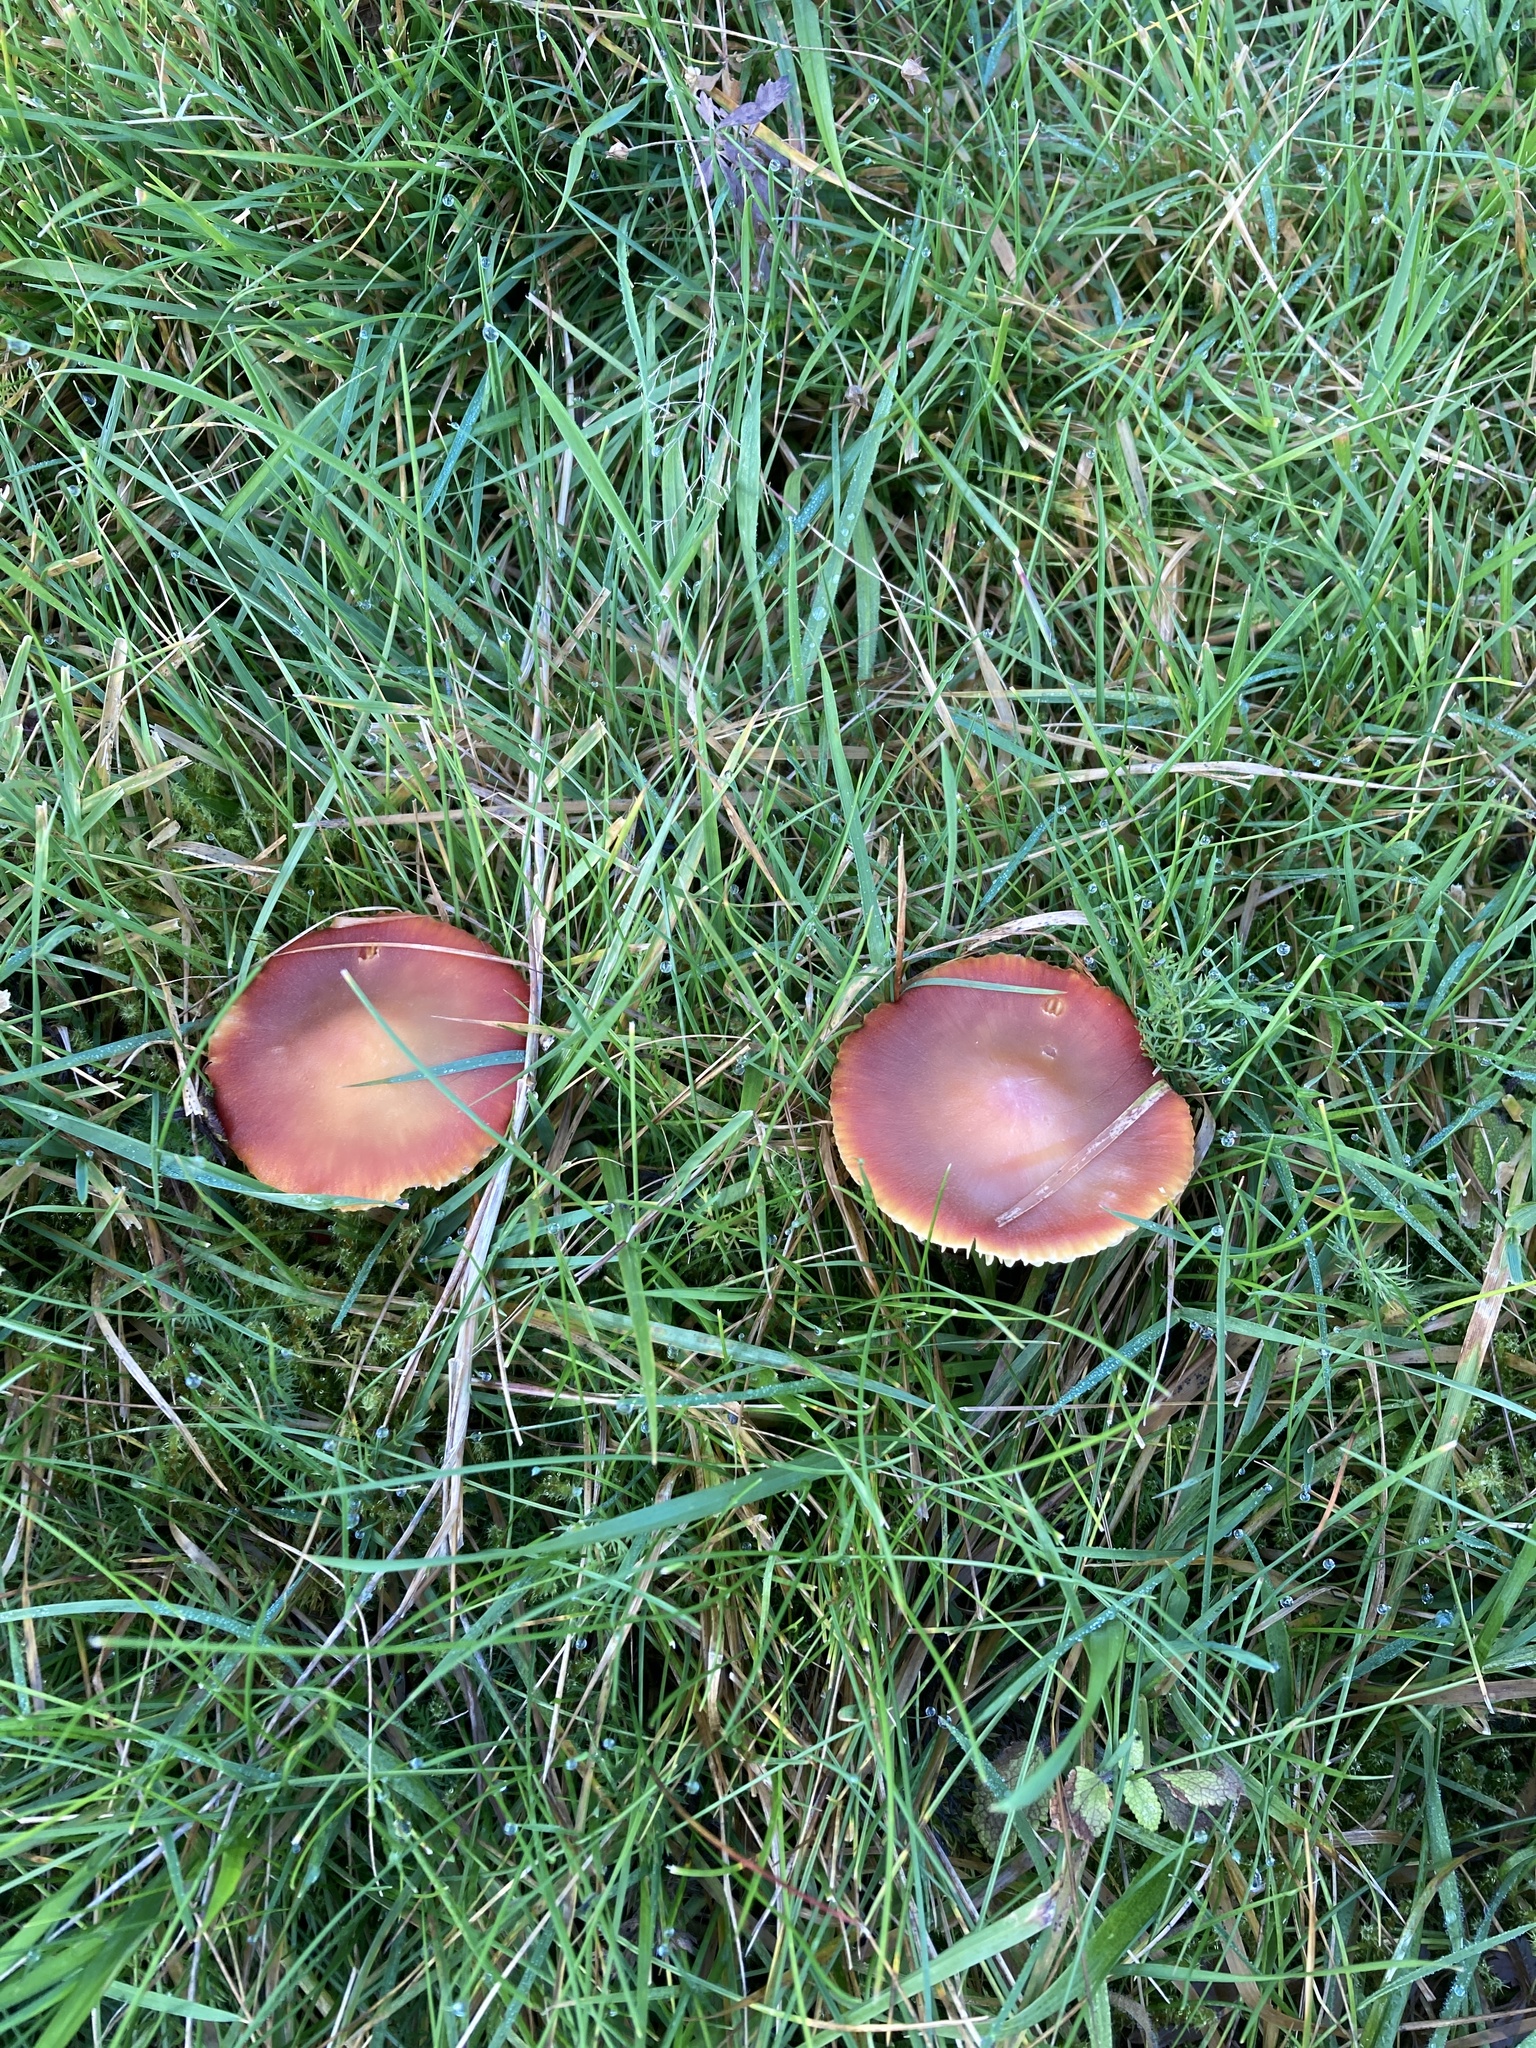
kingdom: Fungi
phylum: Basidiomycota
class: Agaricomycetes
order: Agaricales
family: Hygrophoraceae
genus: Hygrocybe
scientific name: Hygrocybe punicea
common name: Crimson waxcap
